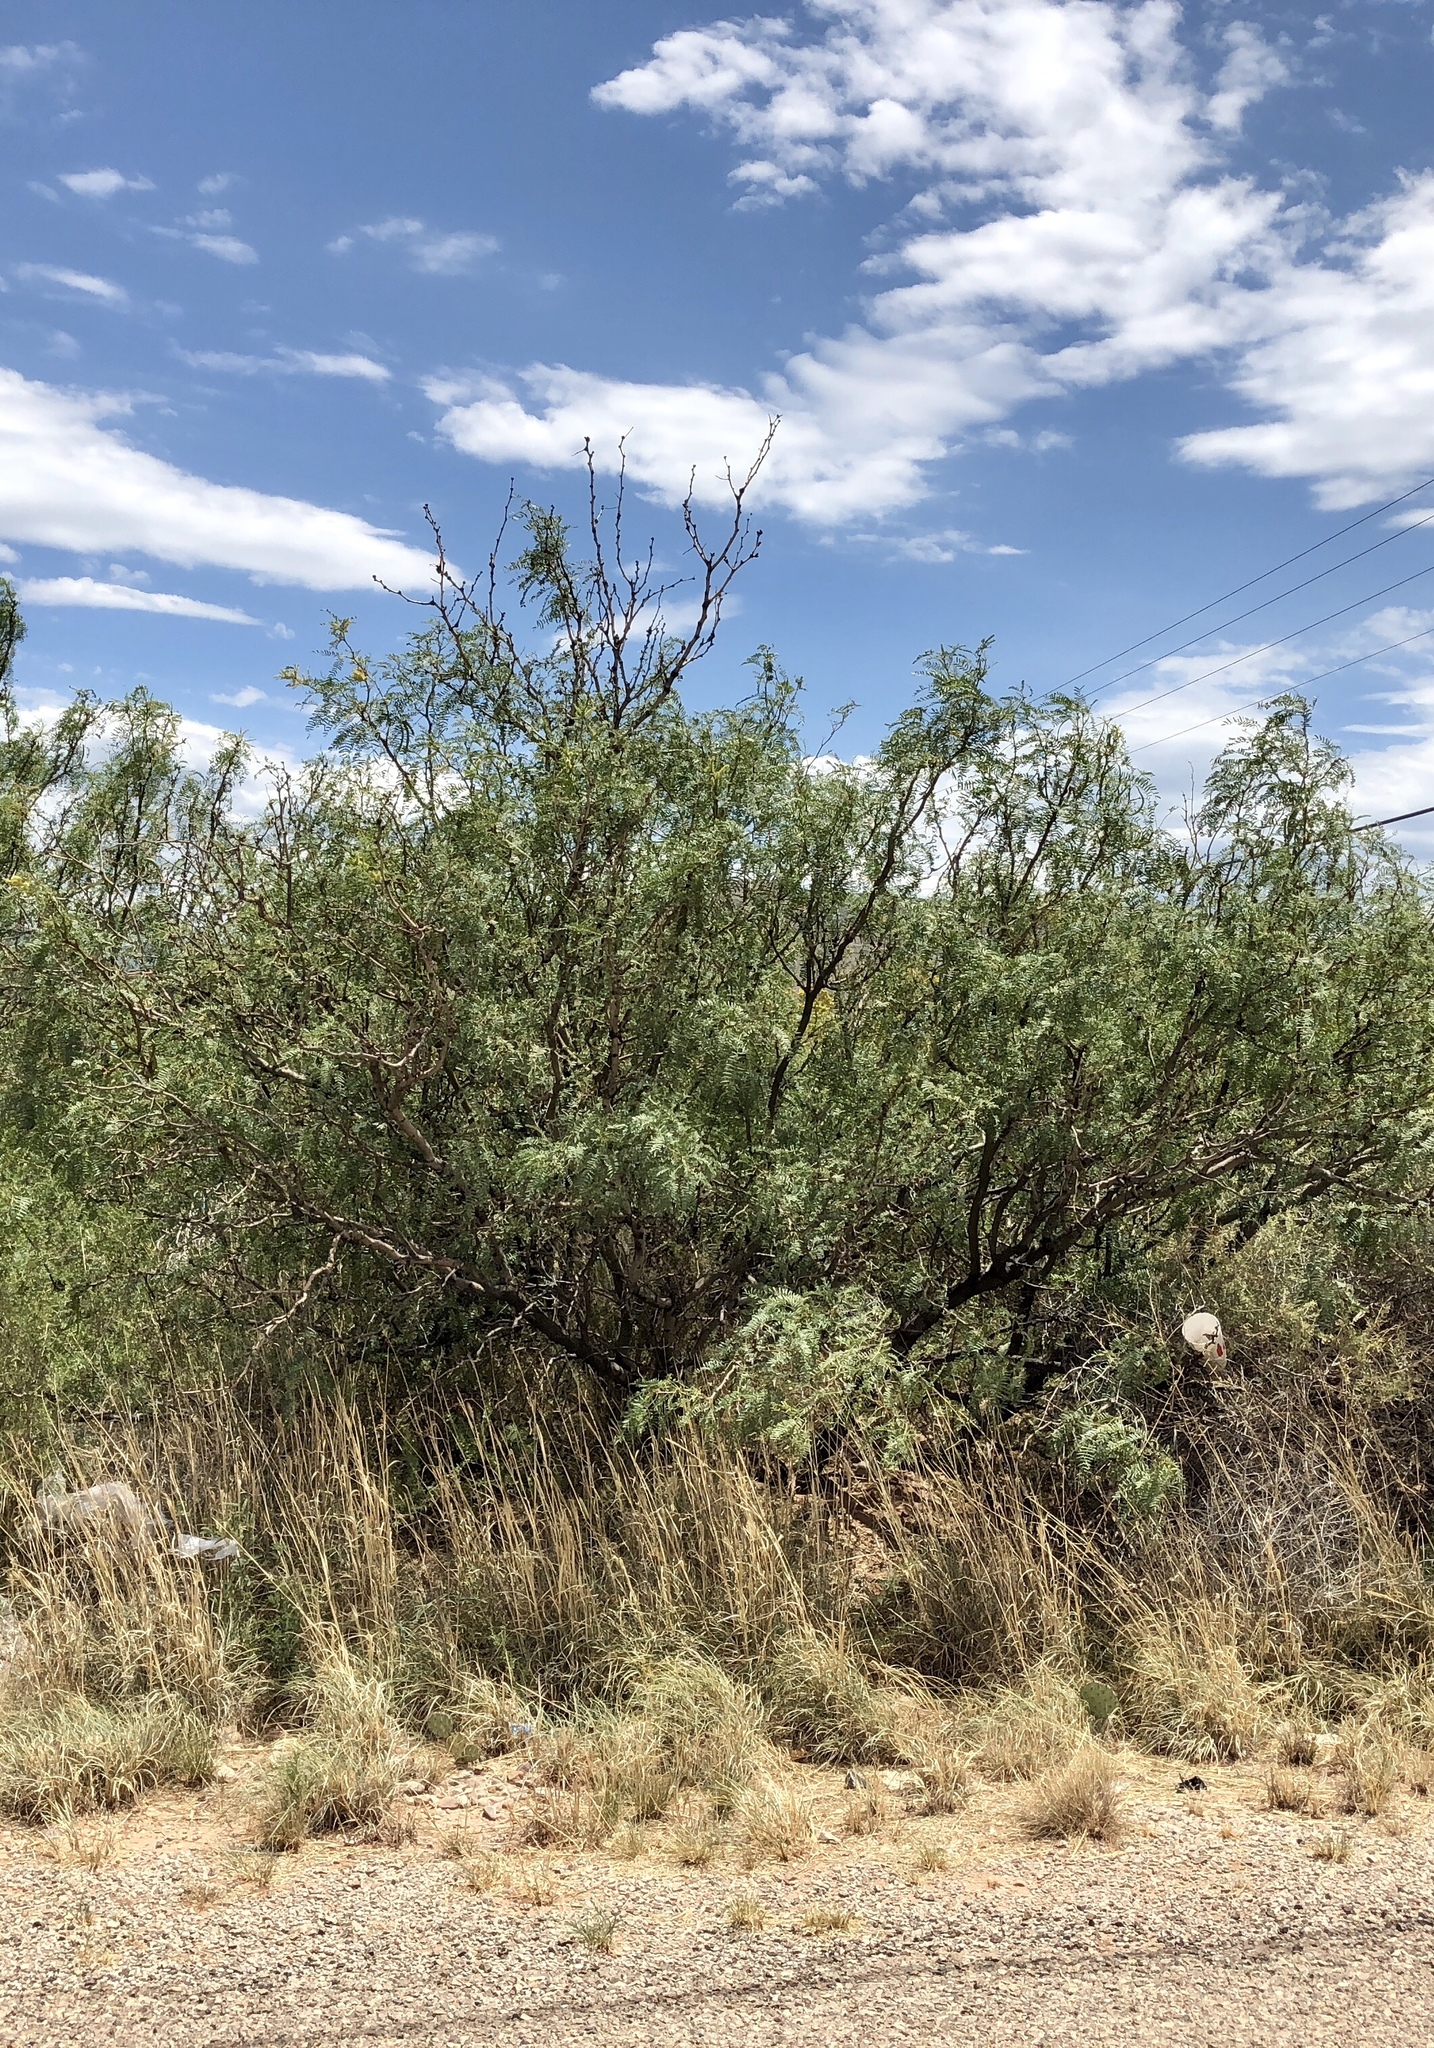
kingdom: Plantae
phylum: Tracheophyta
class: Magnoliopsida
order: Fabales
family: Fabaceae
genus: Prosopis
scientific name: Prosopis glandulosa
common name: Honey mesquite
